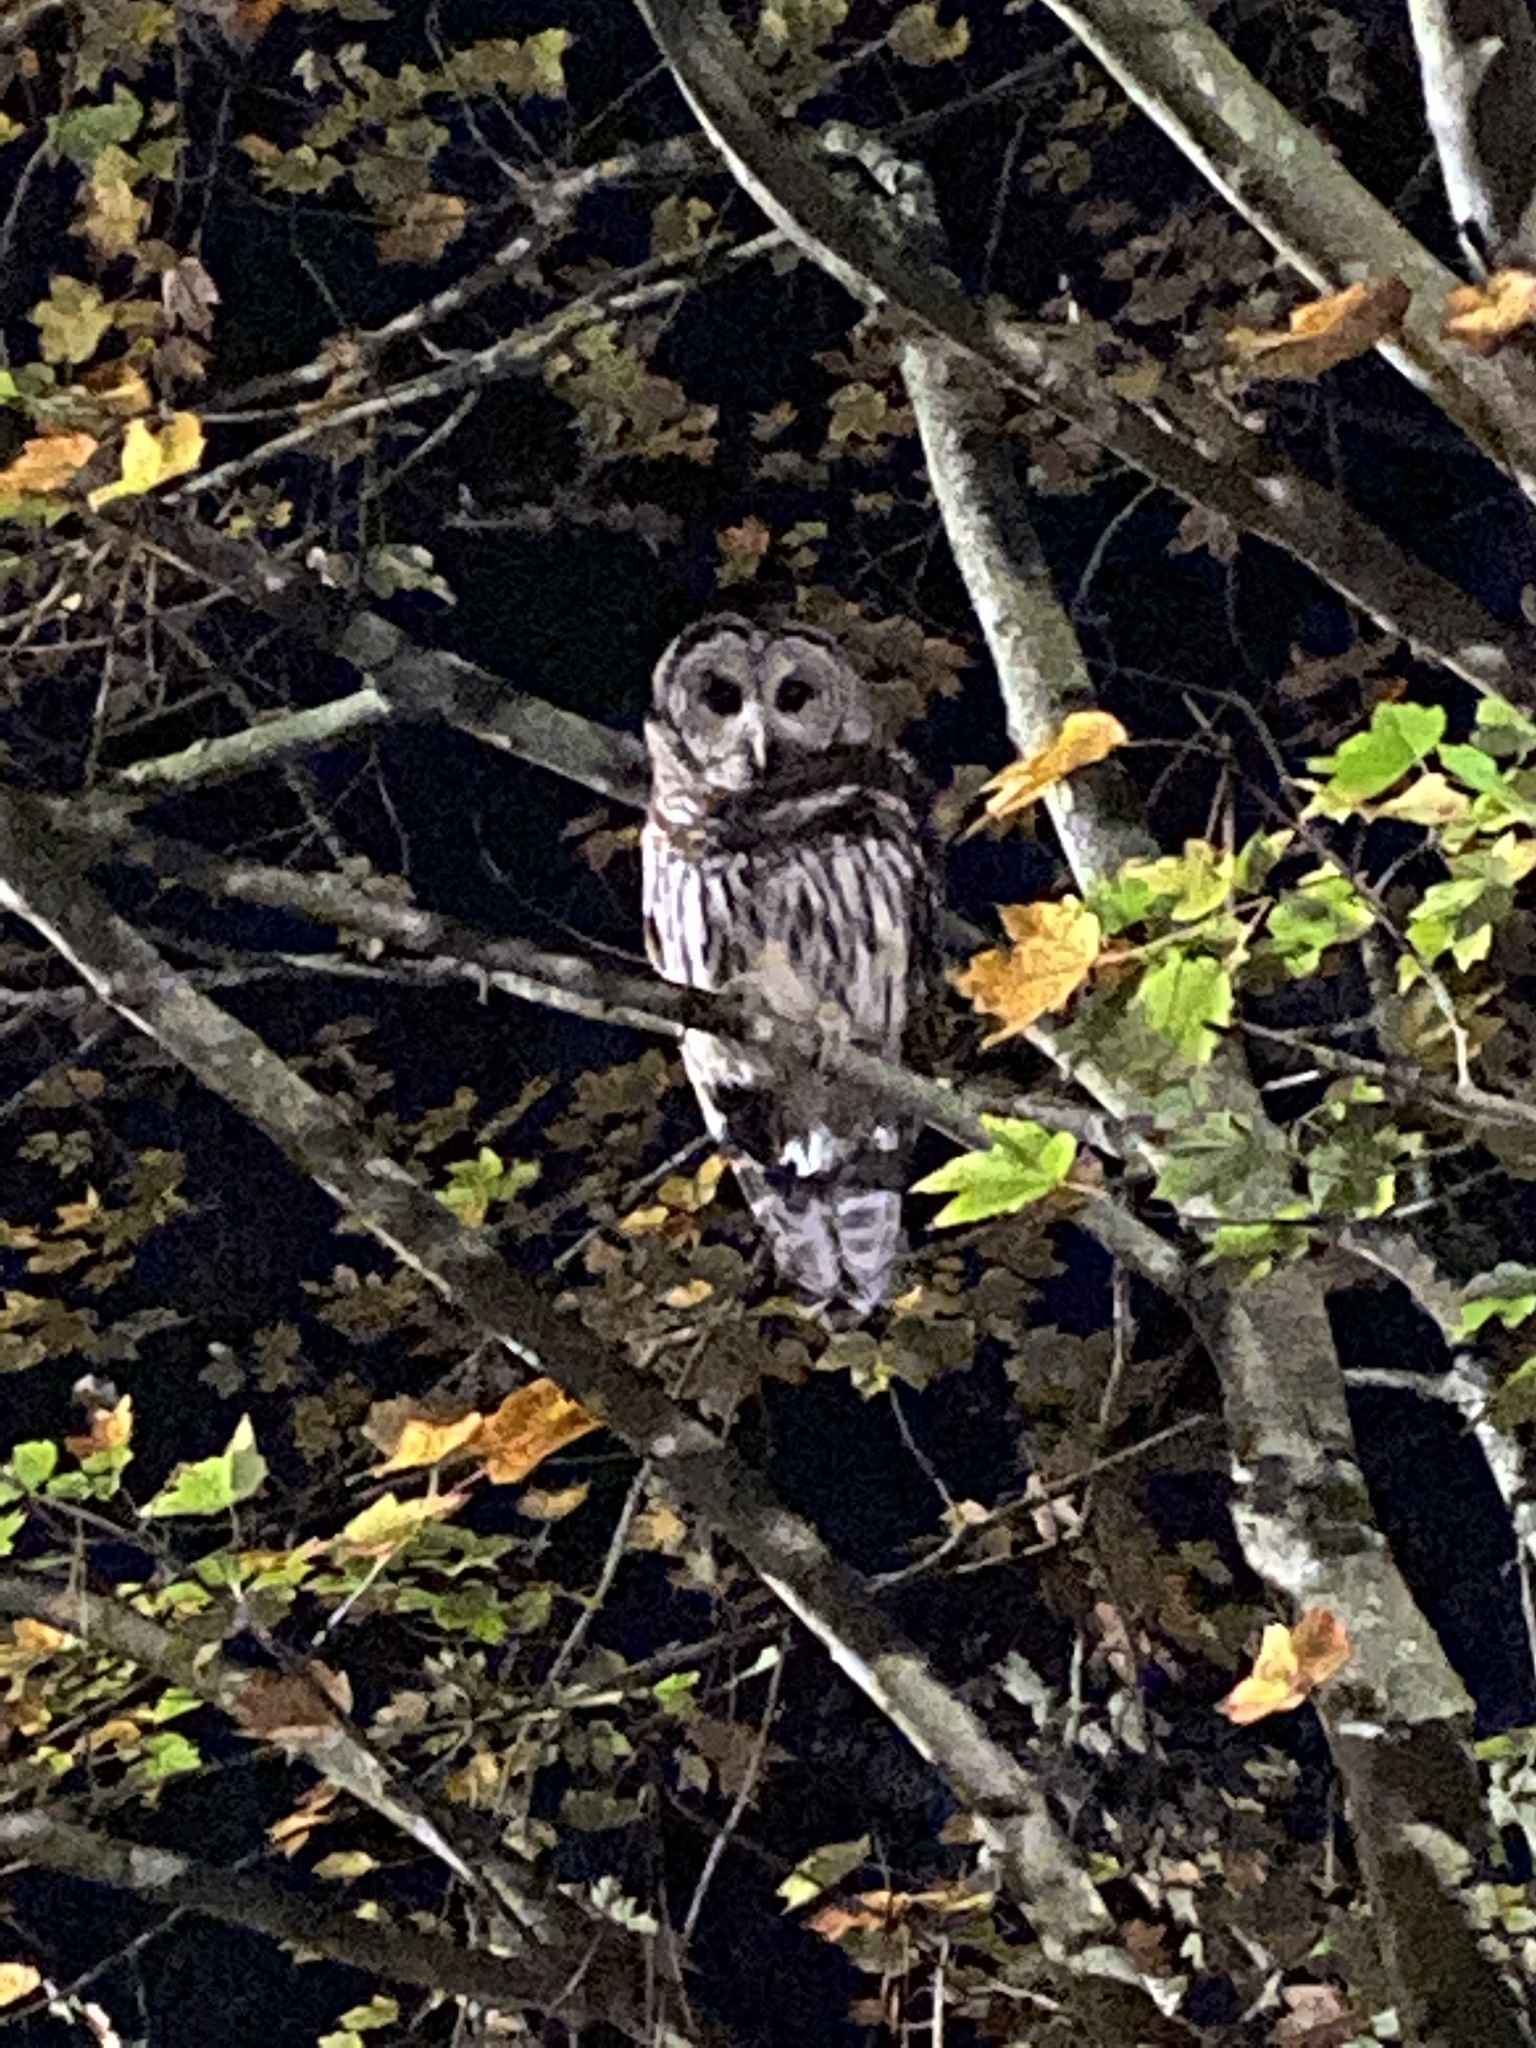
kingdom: Animalia
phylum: Chordata
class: Aves
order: Strigiformes
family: Strigidae
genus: Strix
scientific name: Strix varia
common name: Barred owl
